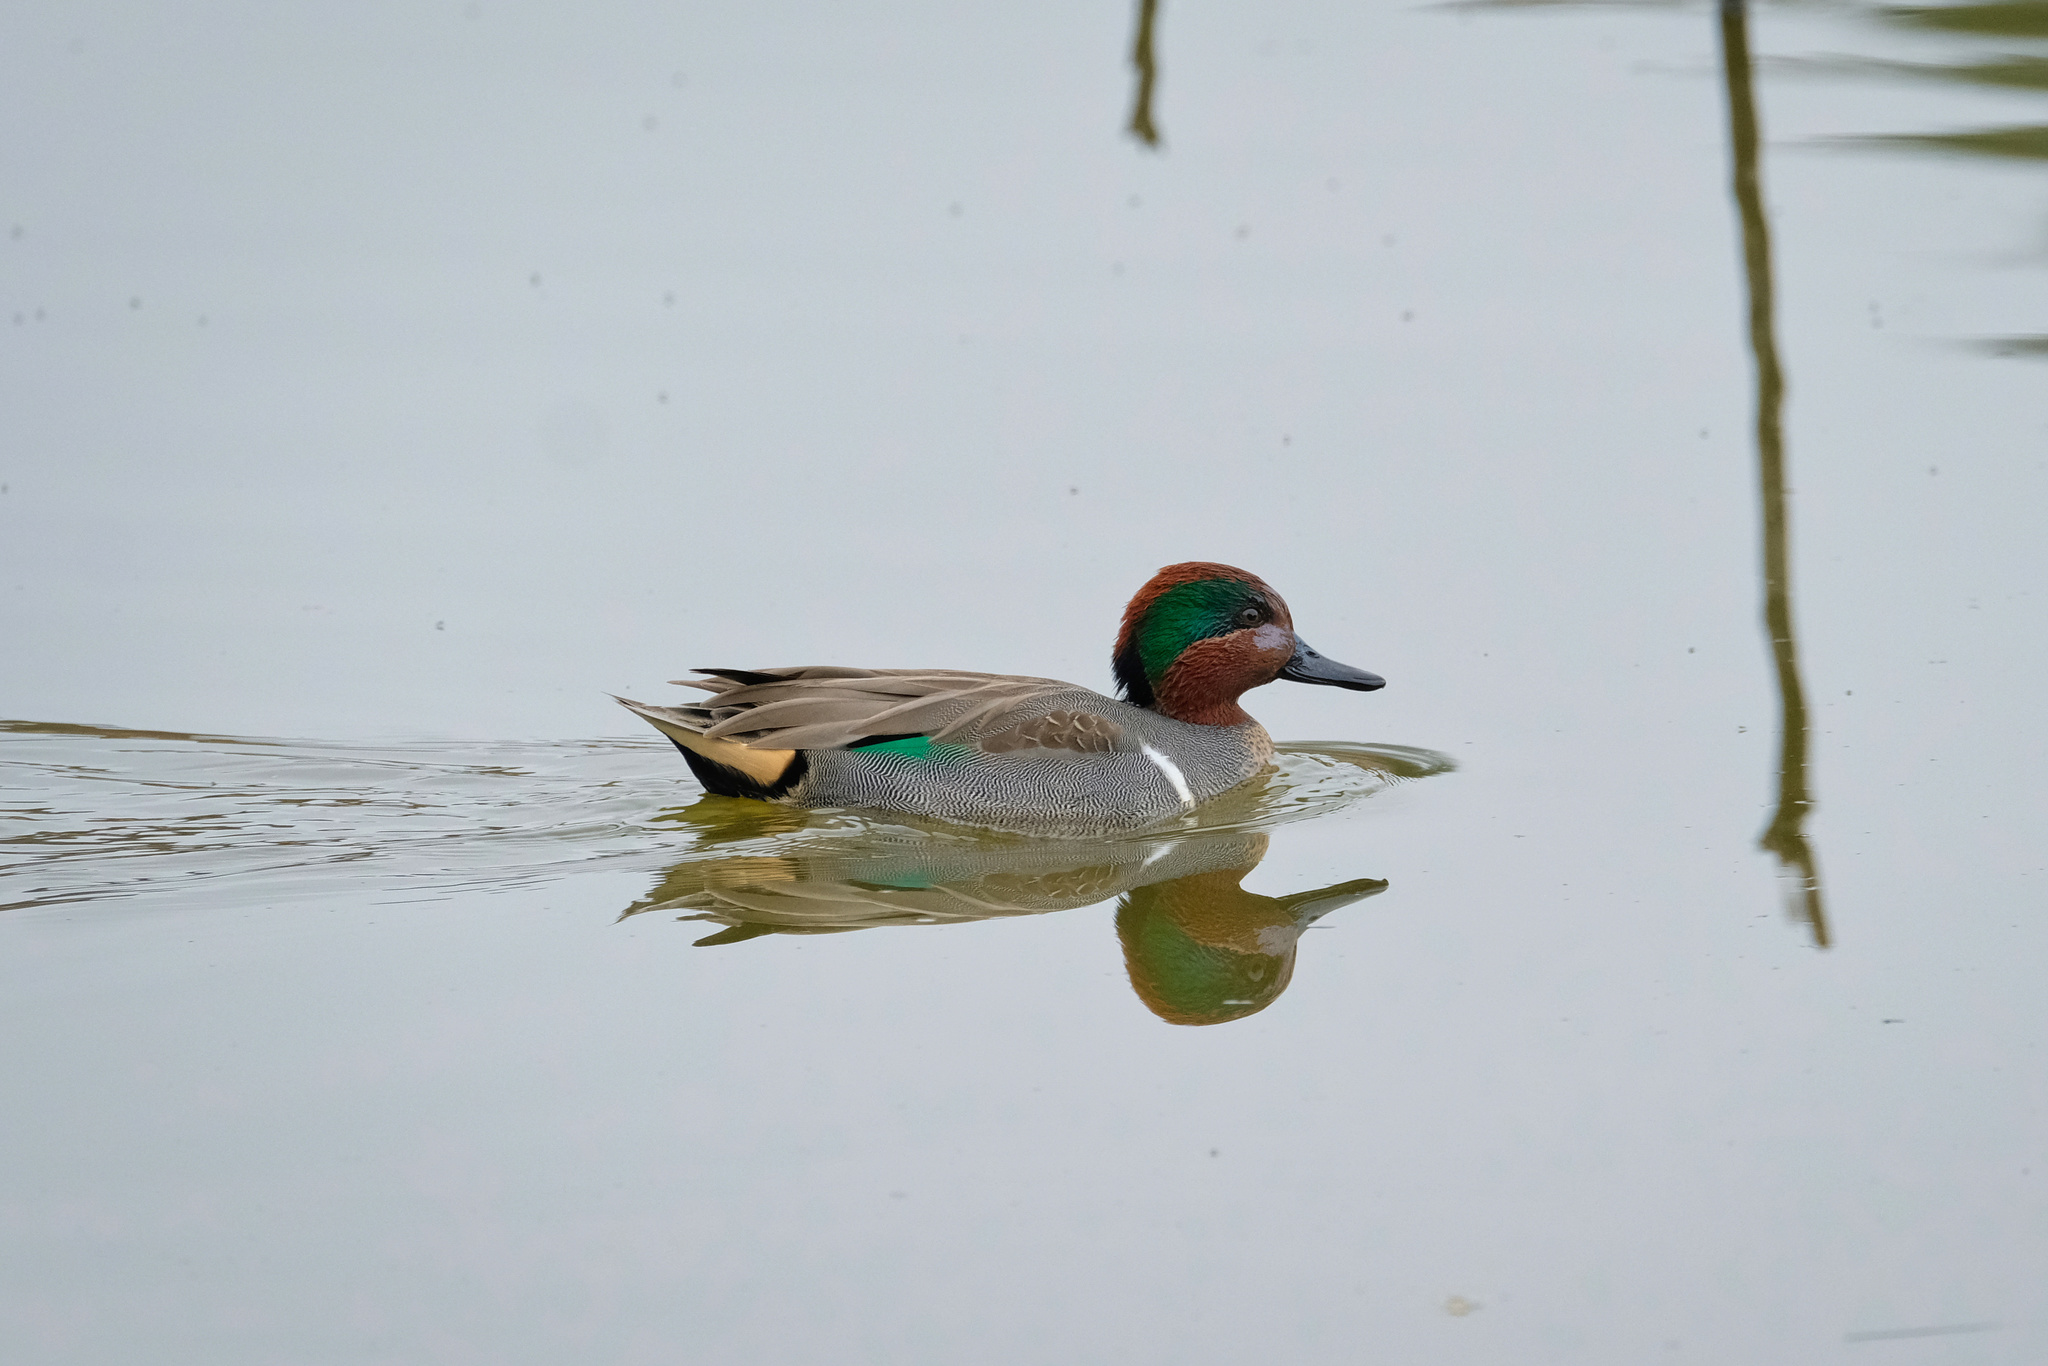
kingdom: Animalia
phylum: Chordata
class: Aves
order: Anseriformes
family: Anatidae
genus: Anas
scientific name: Anas crecca
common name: Eurasian teal
